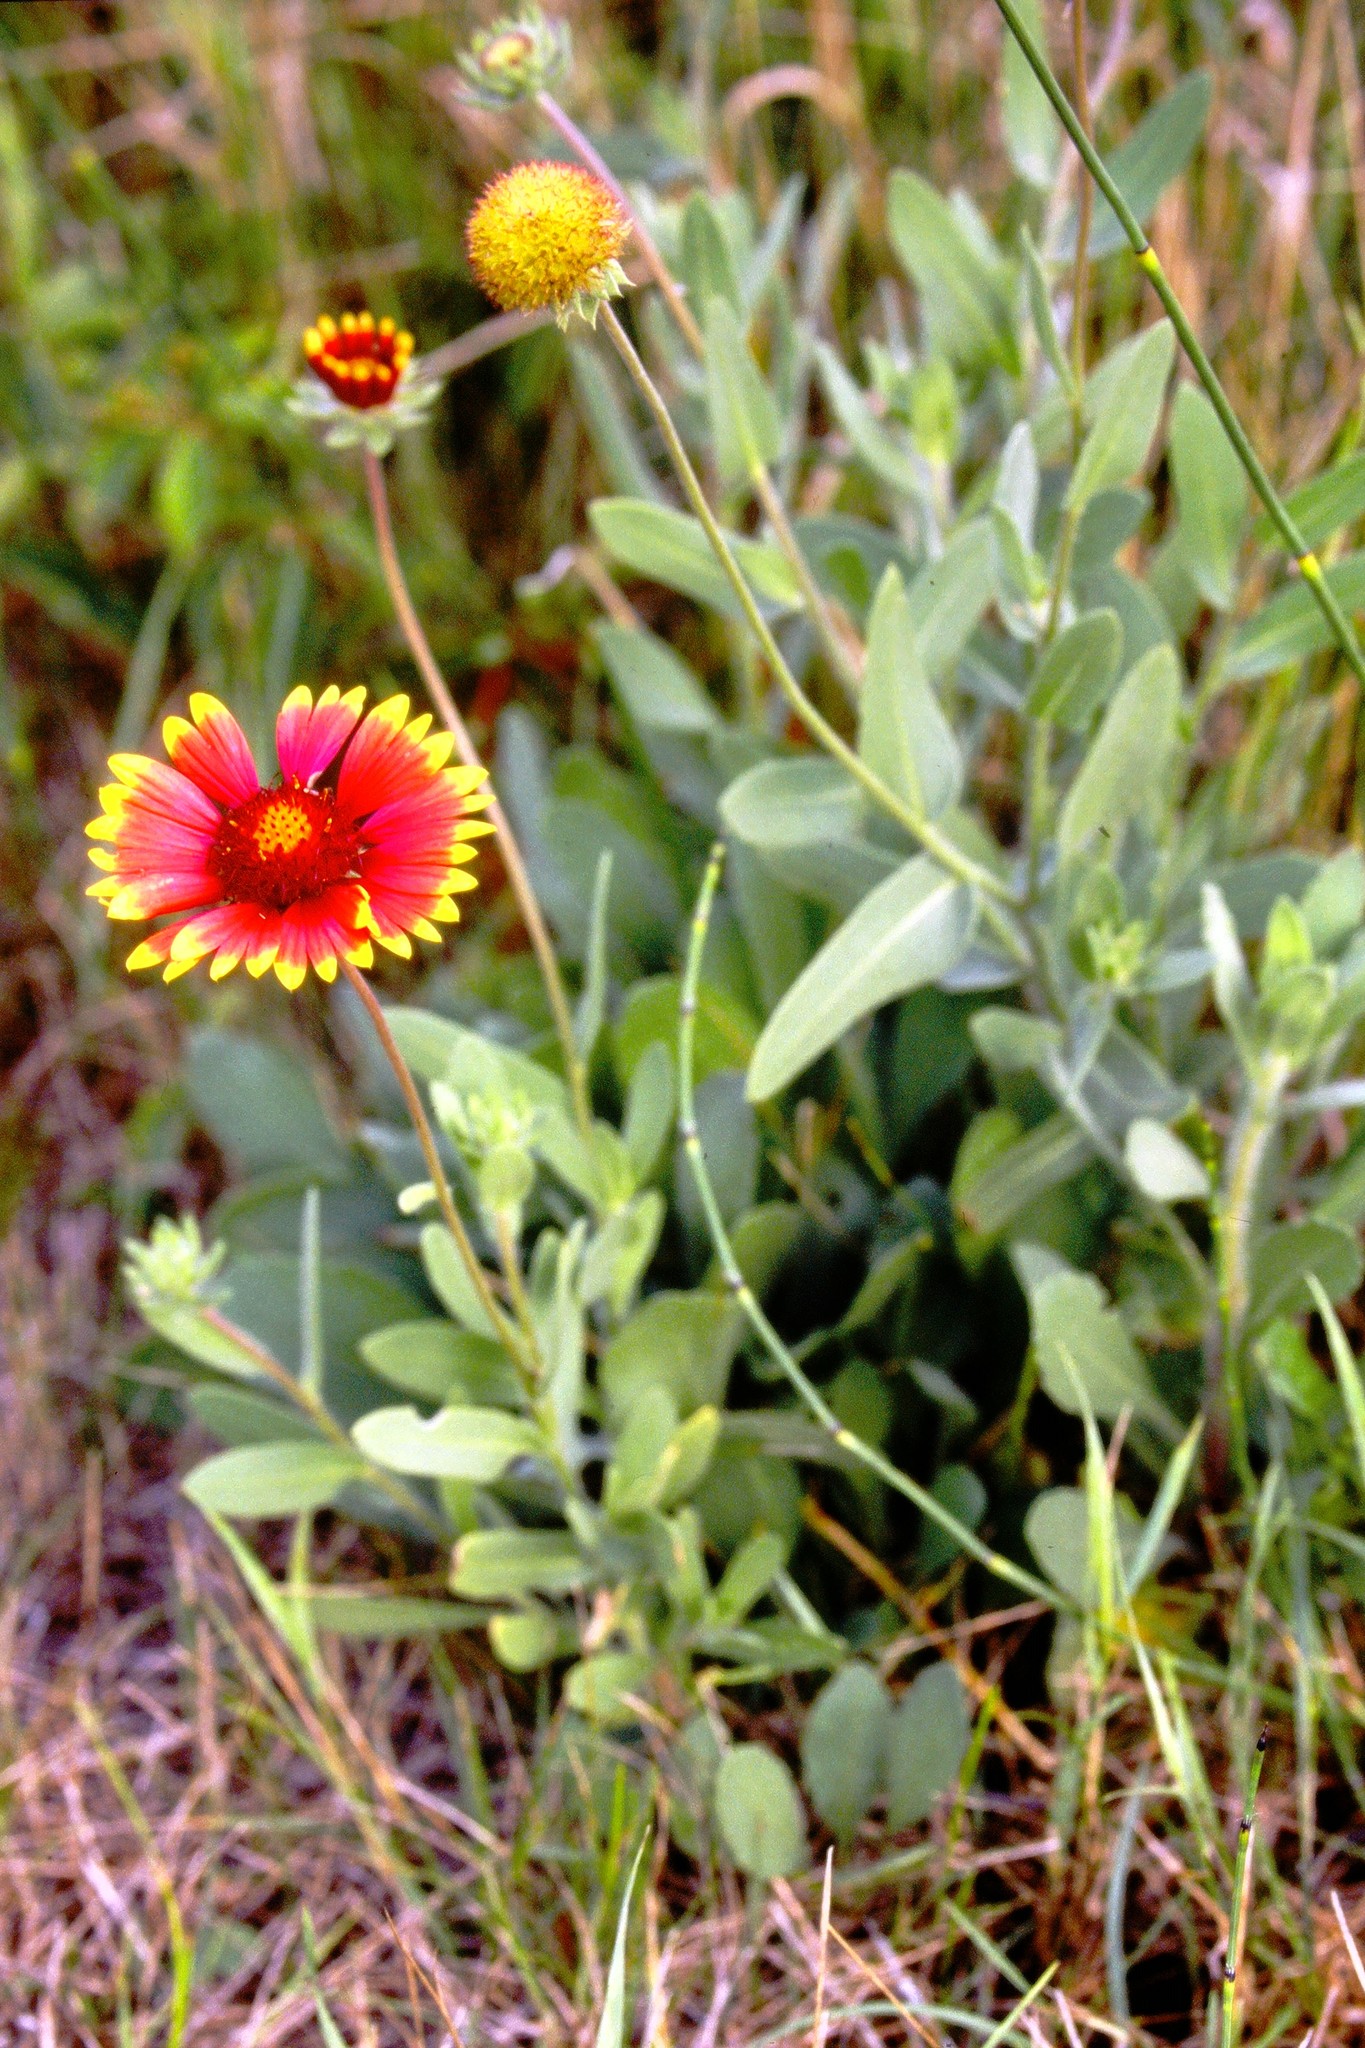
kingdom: Plantae
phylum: Tracheophyta
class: Magnoliopsida
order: Asterales
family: Asteraceae
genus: Gaillardia
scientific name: Gaillardia pulchella
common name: Firewheel
